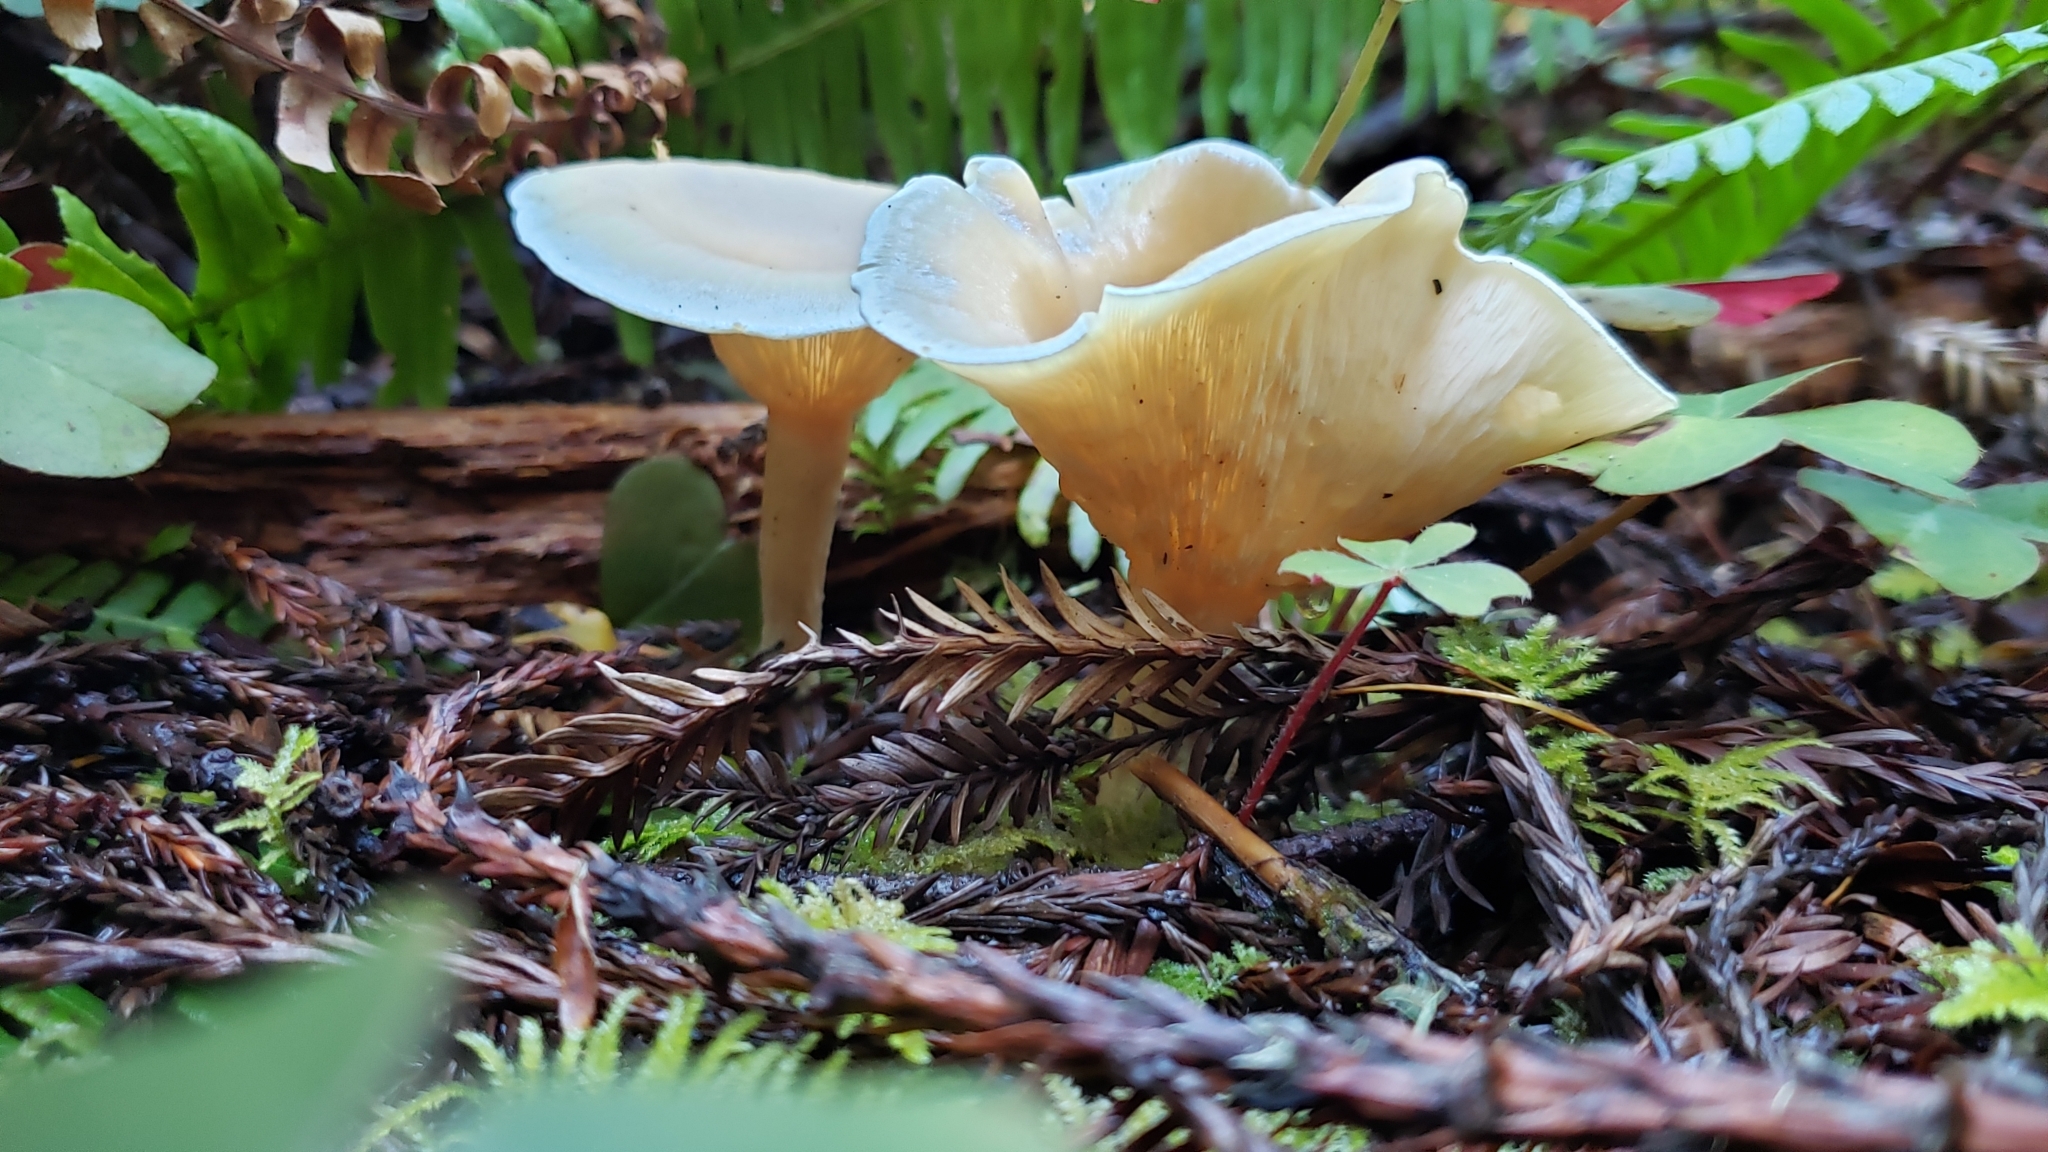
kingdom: Fungi
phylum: Basidiomycota
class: Agaricomycetes
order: Agaricales
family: Tricholomataceae
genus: Clitocybe
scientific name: Clitocybe fragrans
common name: Fragrant funnel
